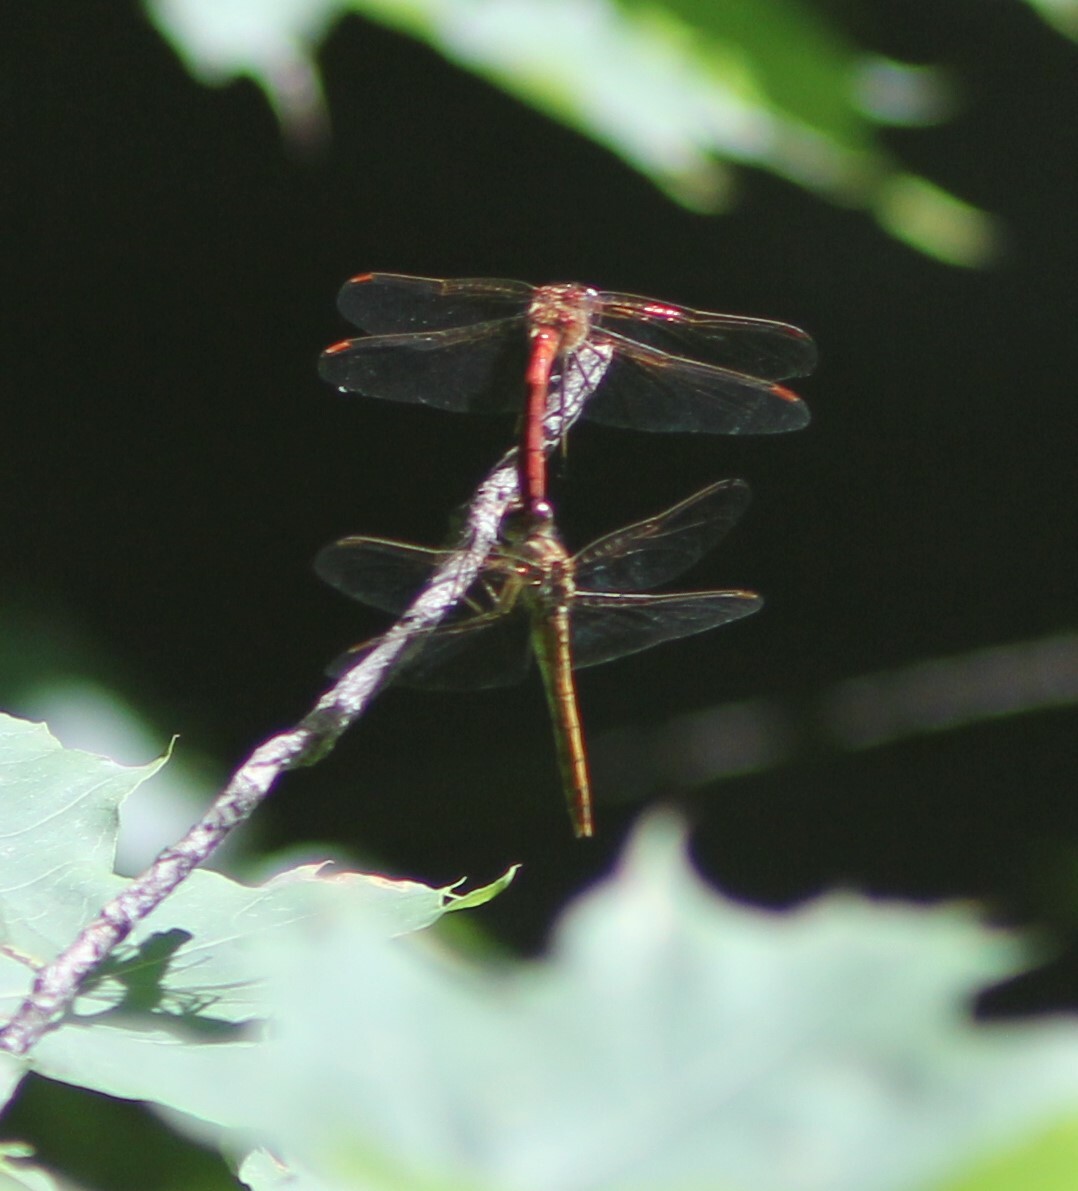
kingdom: Animalia
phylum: Arthropoda
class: Insecta
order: Odonata
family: Libellulidae
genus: Sympetrum
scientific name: Sympetrum sanguineum
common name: Ruddy darter
